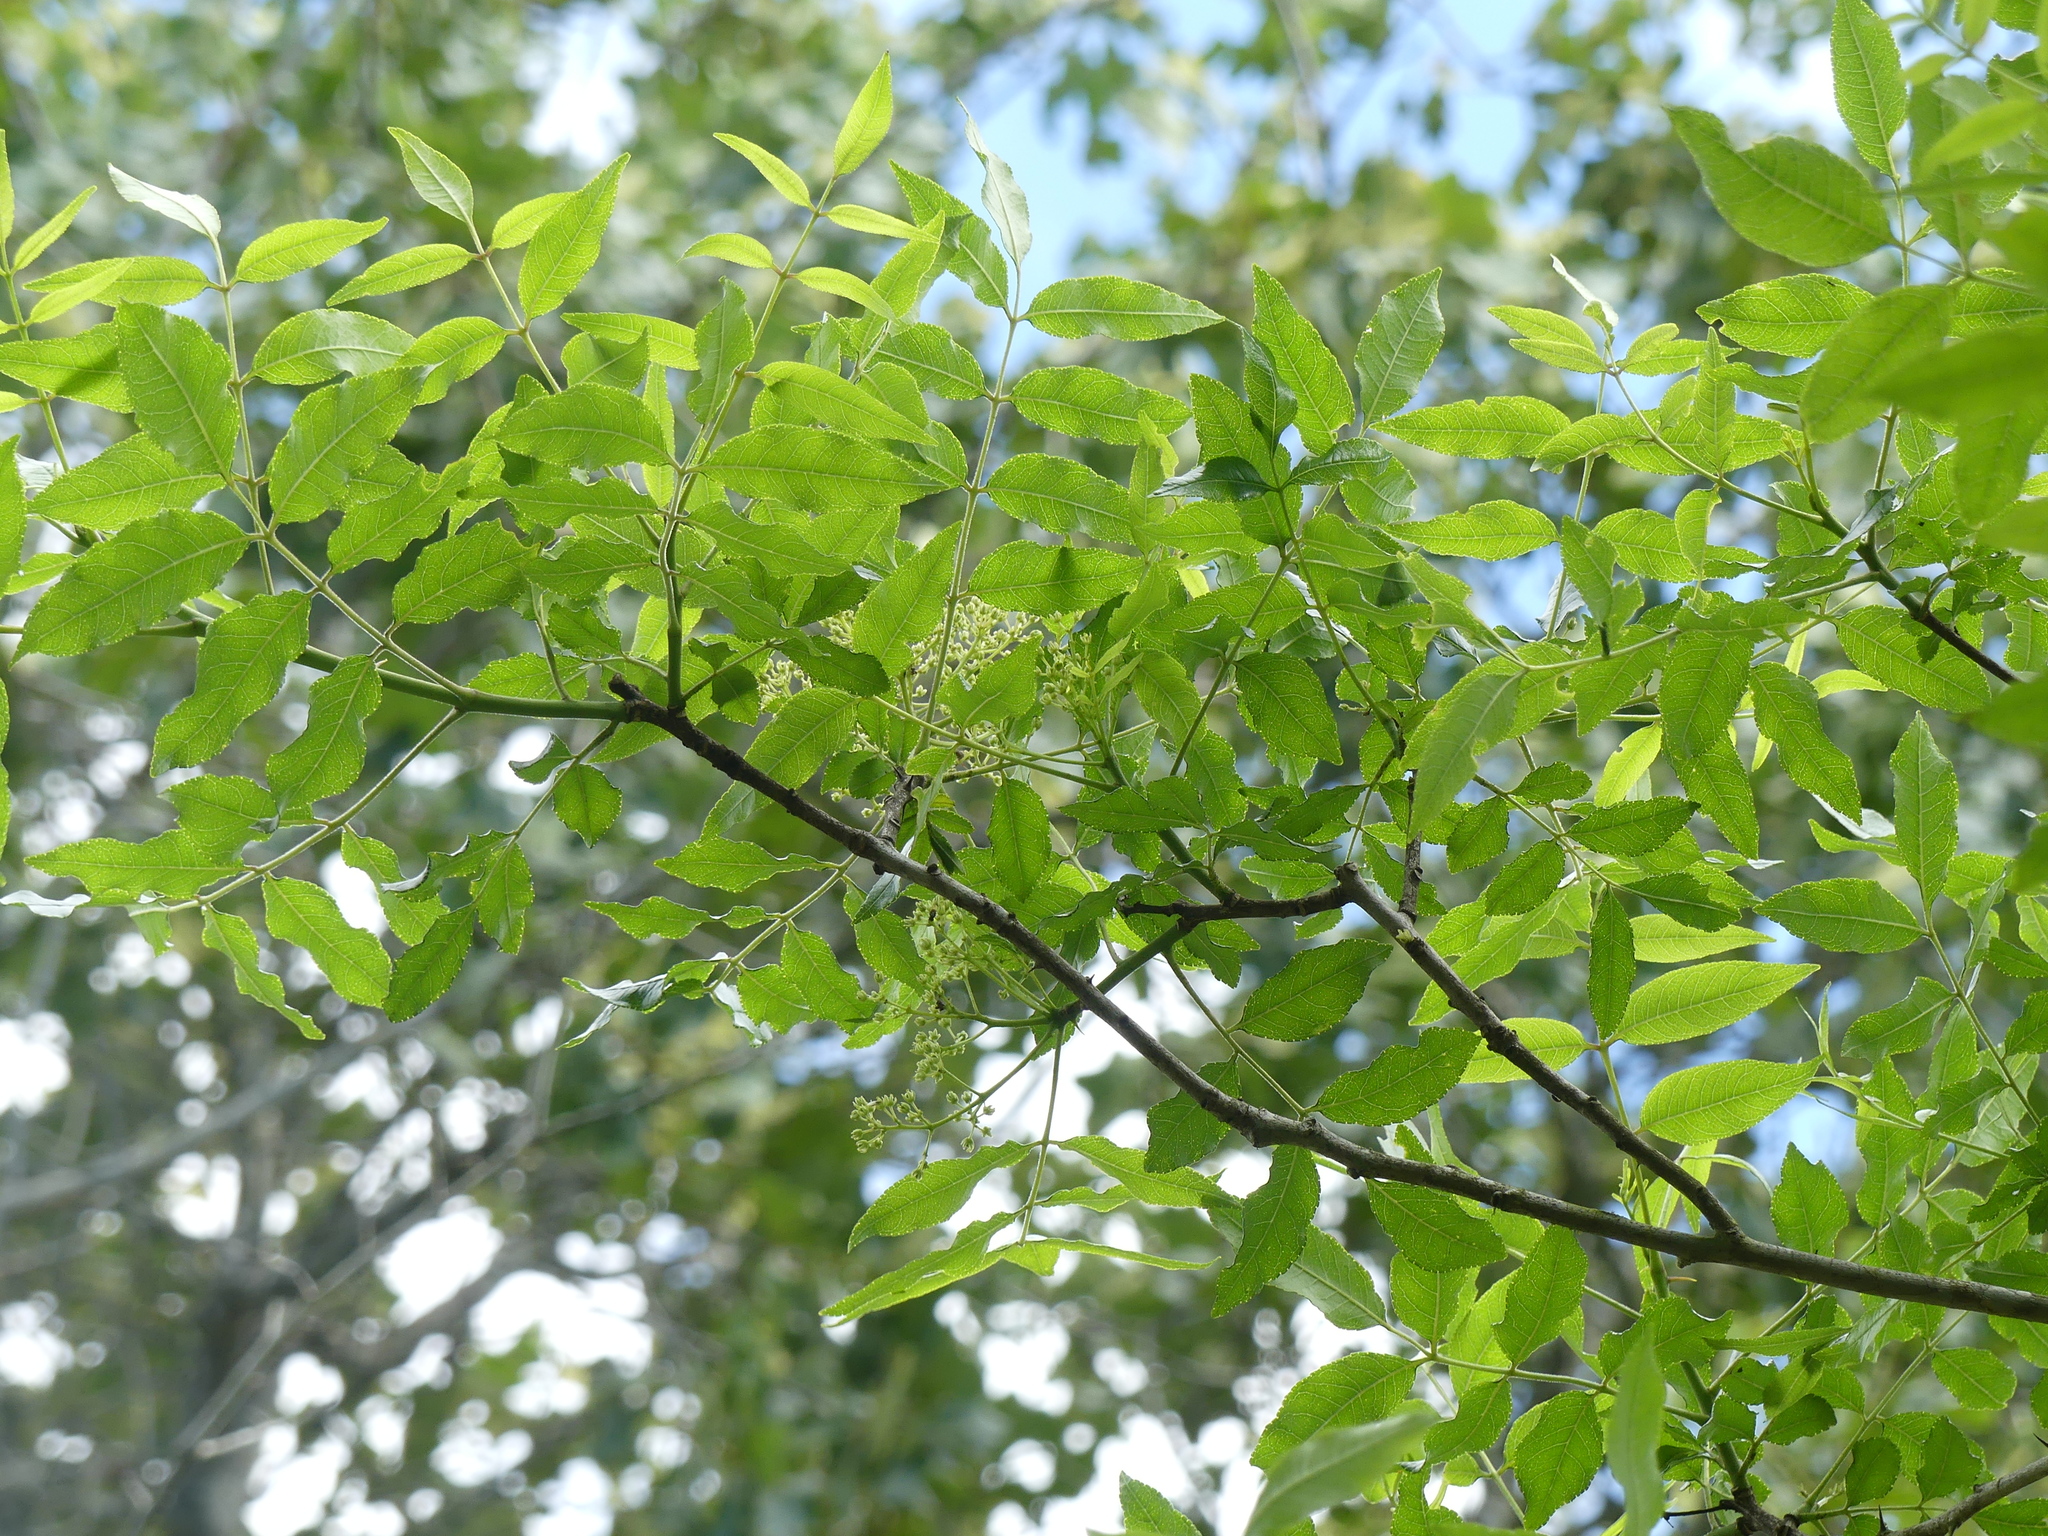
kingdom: Plantae
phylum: Tracheophyta
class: Magnoliopsida
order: Sapindales
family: Rutaceae
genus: Zanthoxylum
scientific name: Zanthoxylum clava-herculis
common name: Hercules'-club
